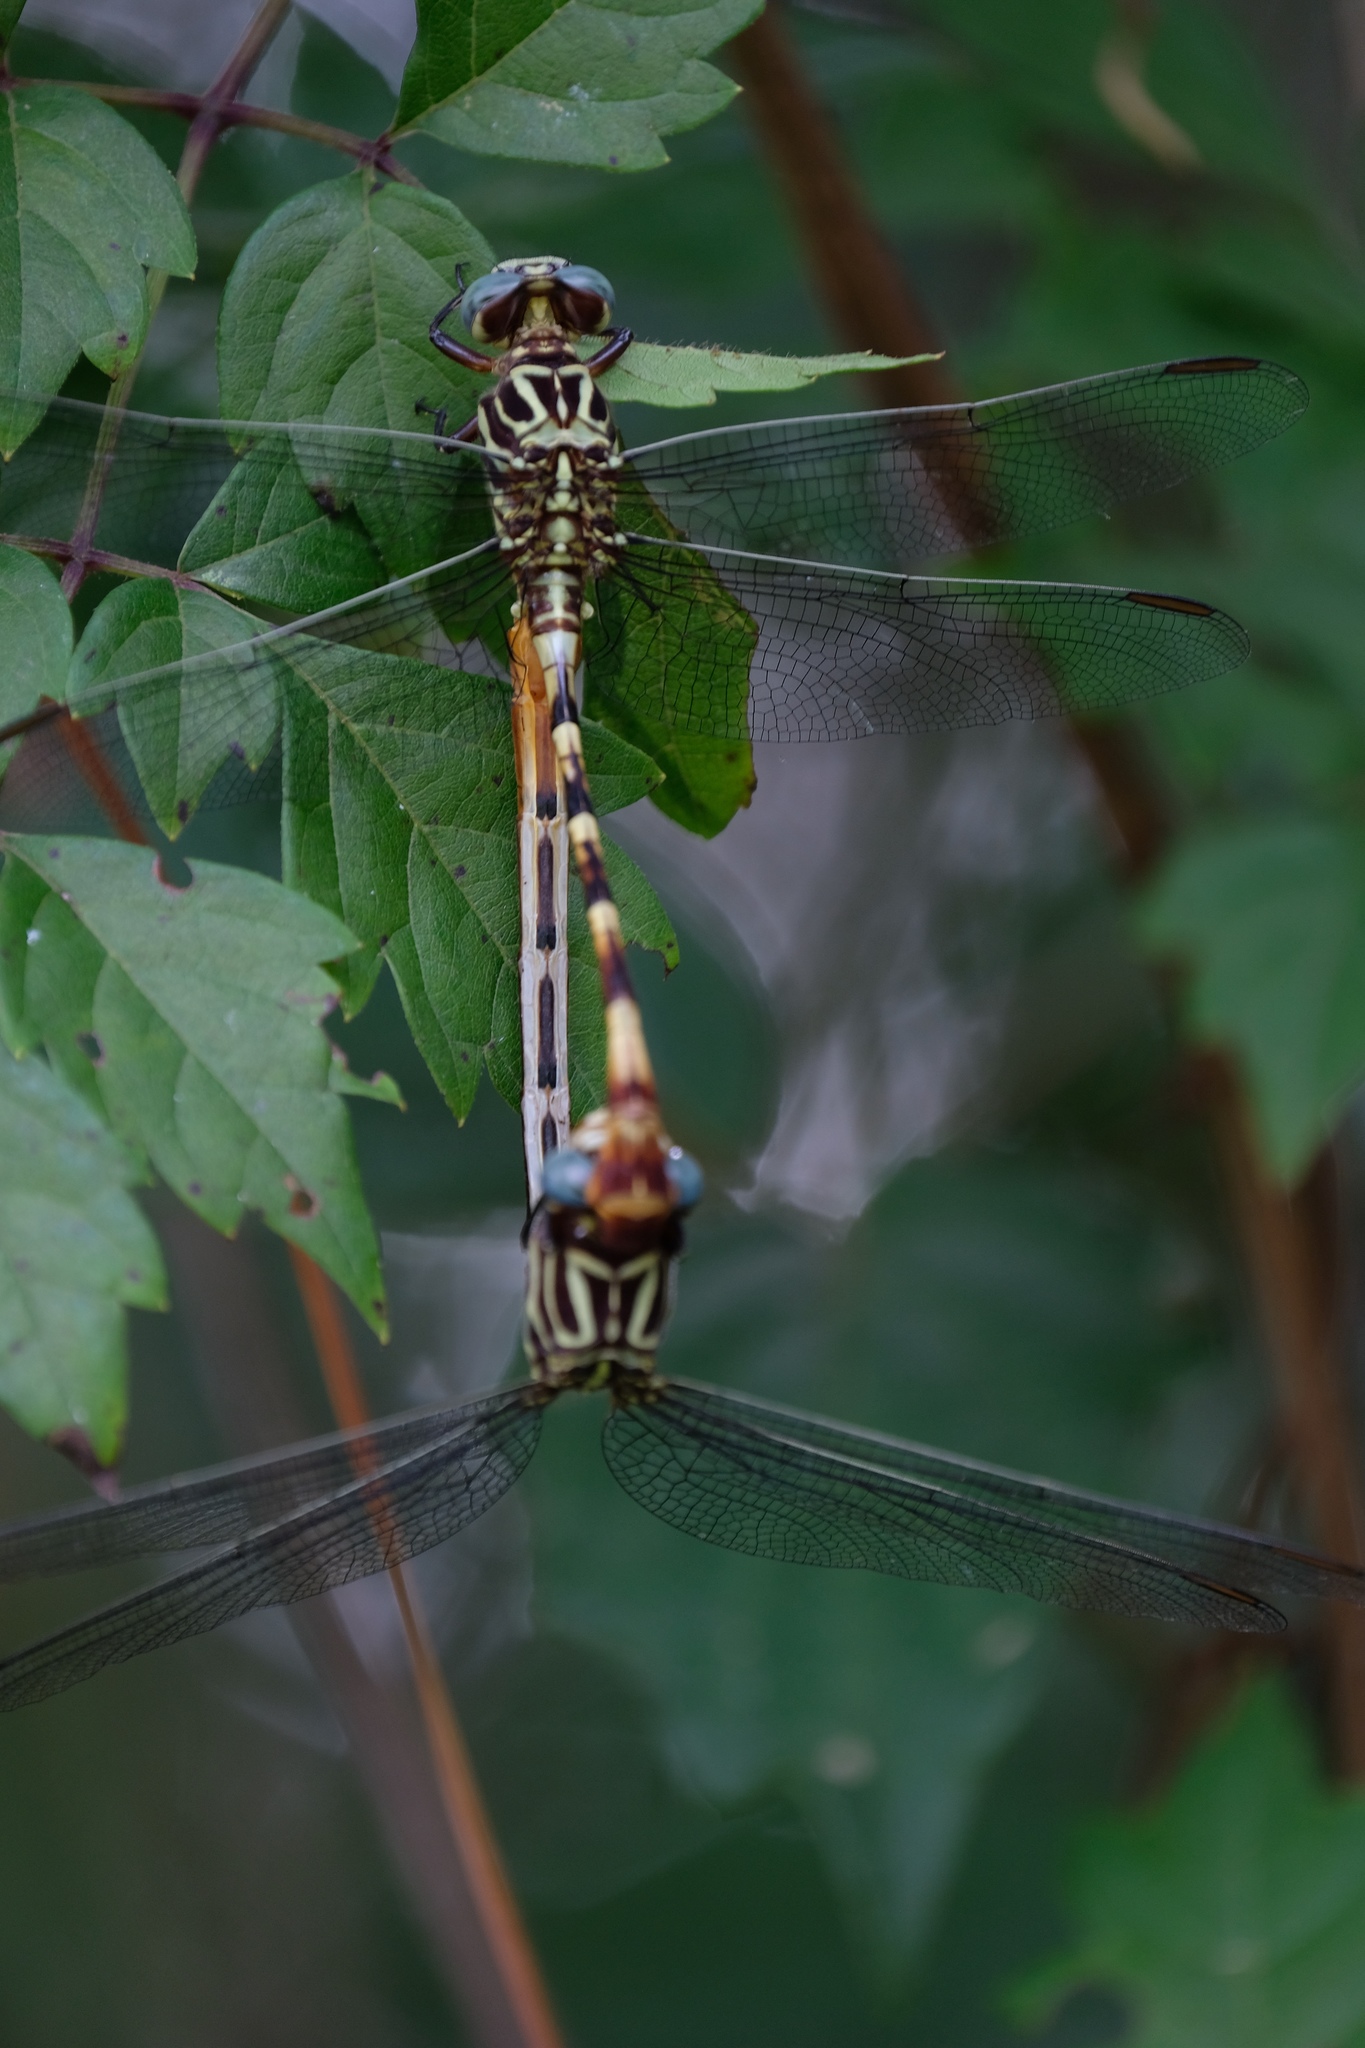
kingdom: Animalia
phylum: Arthropoda
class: Insecta
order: Odonata
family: Gomphidae
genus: Aphylla
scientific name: Aphylla angustifolia
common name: Broad-striped forceptail
